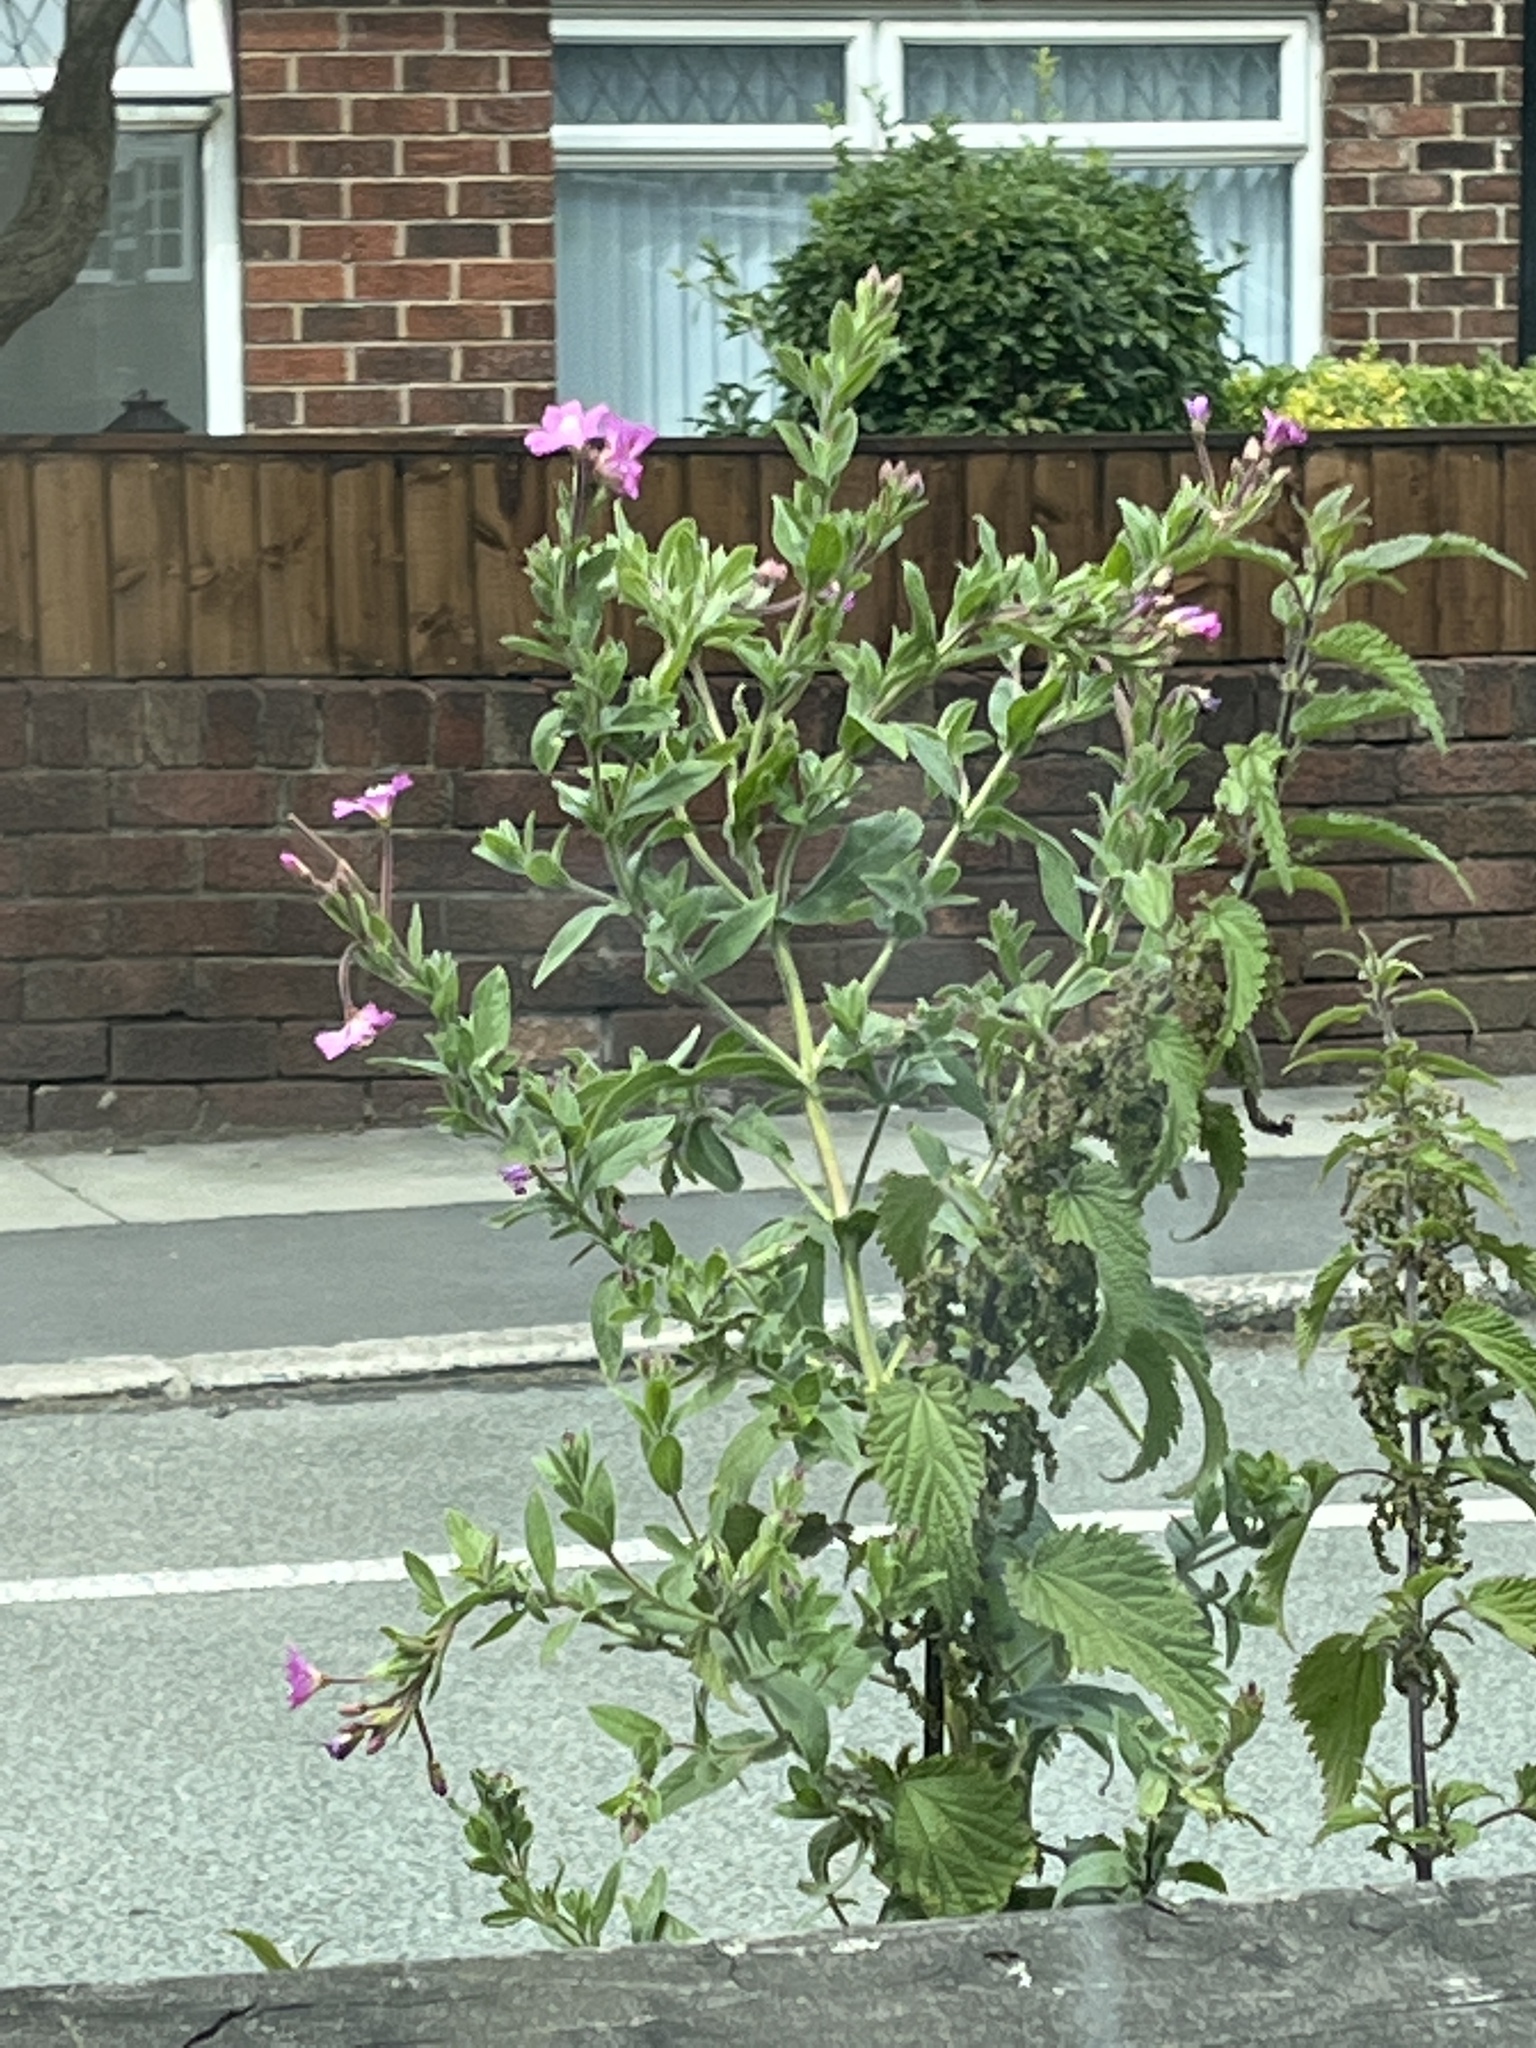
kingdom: Plantae
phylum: Tracheophyta
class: Magnoliopsida
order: Myrtales
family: Onagraceae
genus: Epilobium
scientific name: Epilobium hirsutum
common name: Great willowherb
